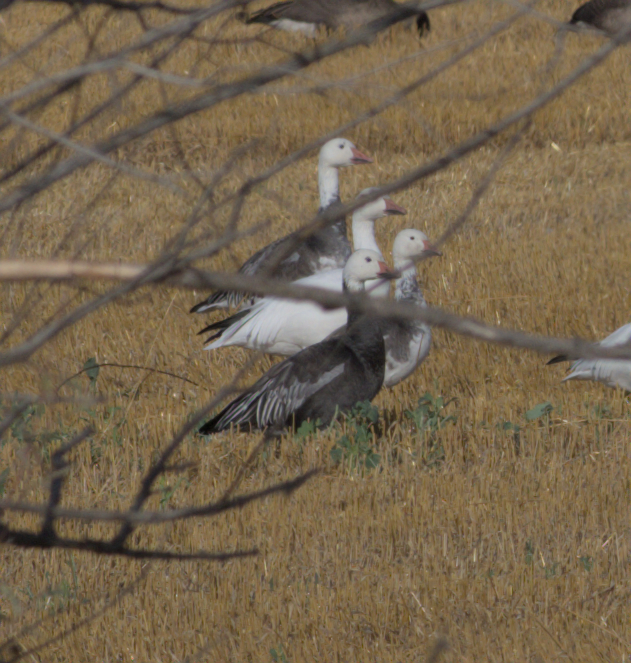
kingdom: Animalia
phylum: Chordata
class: Aves
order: Anseriformes
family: Anatidae
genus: Anser
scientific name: Anser caerulescens
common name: Snow goose
